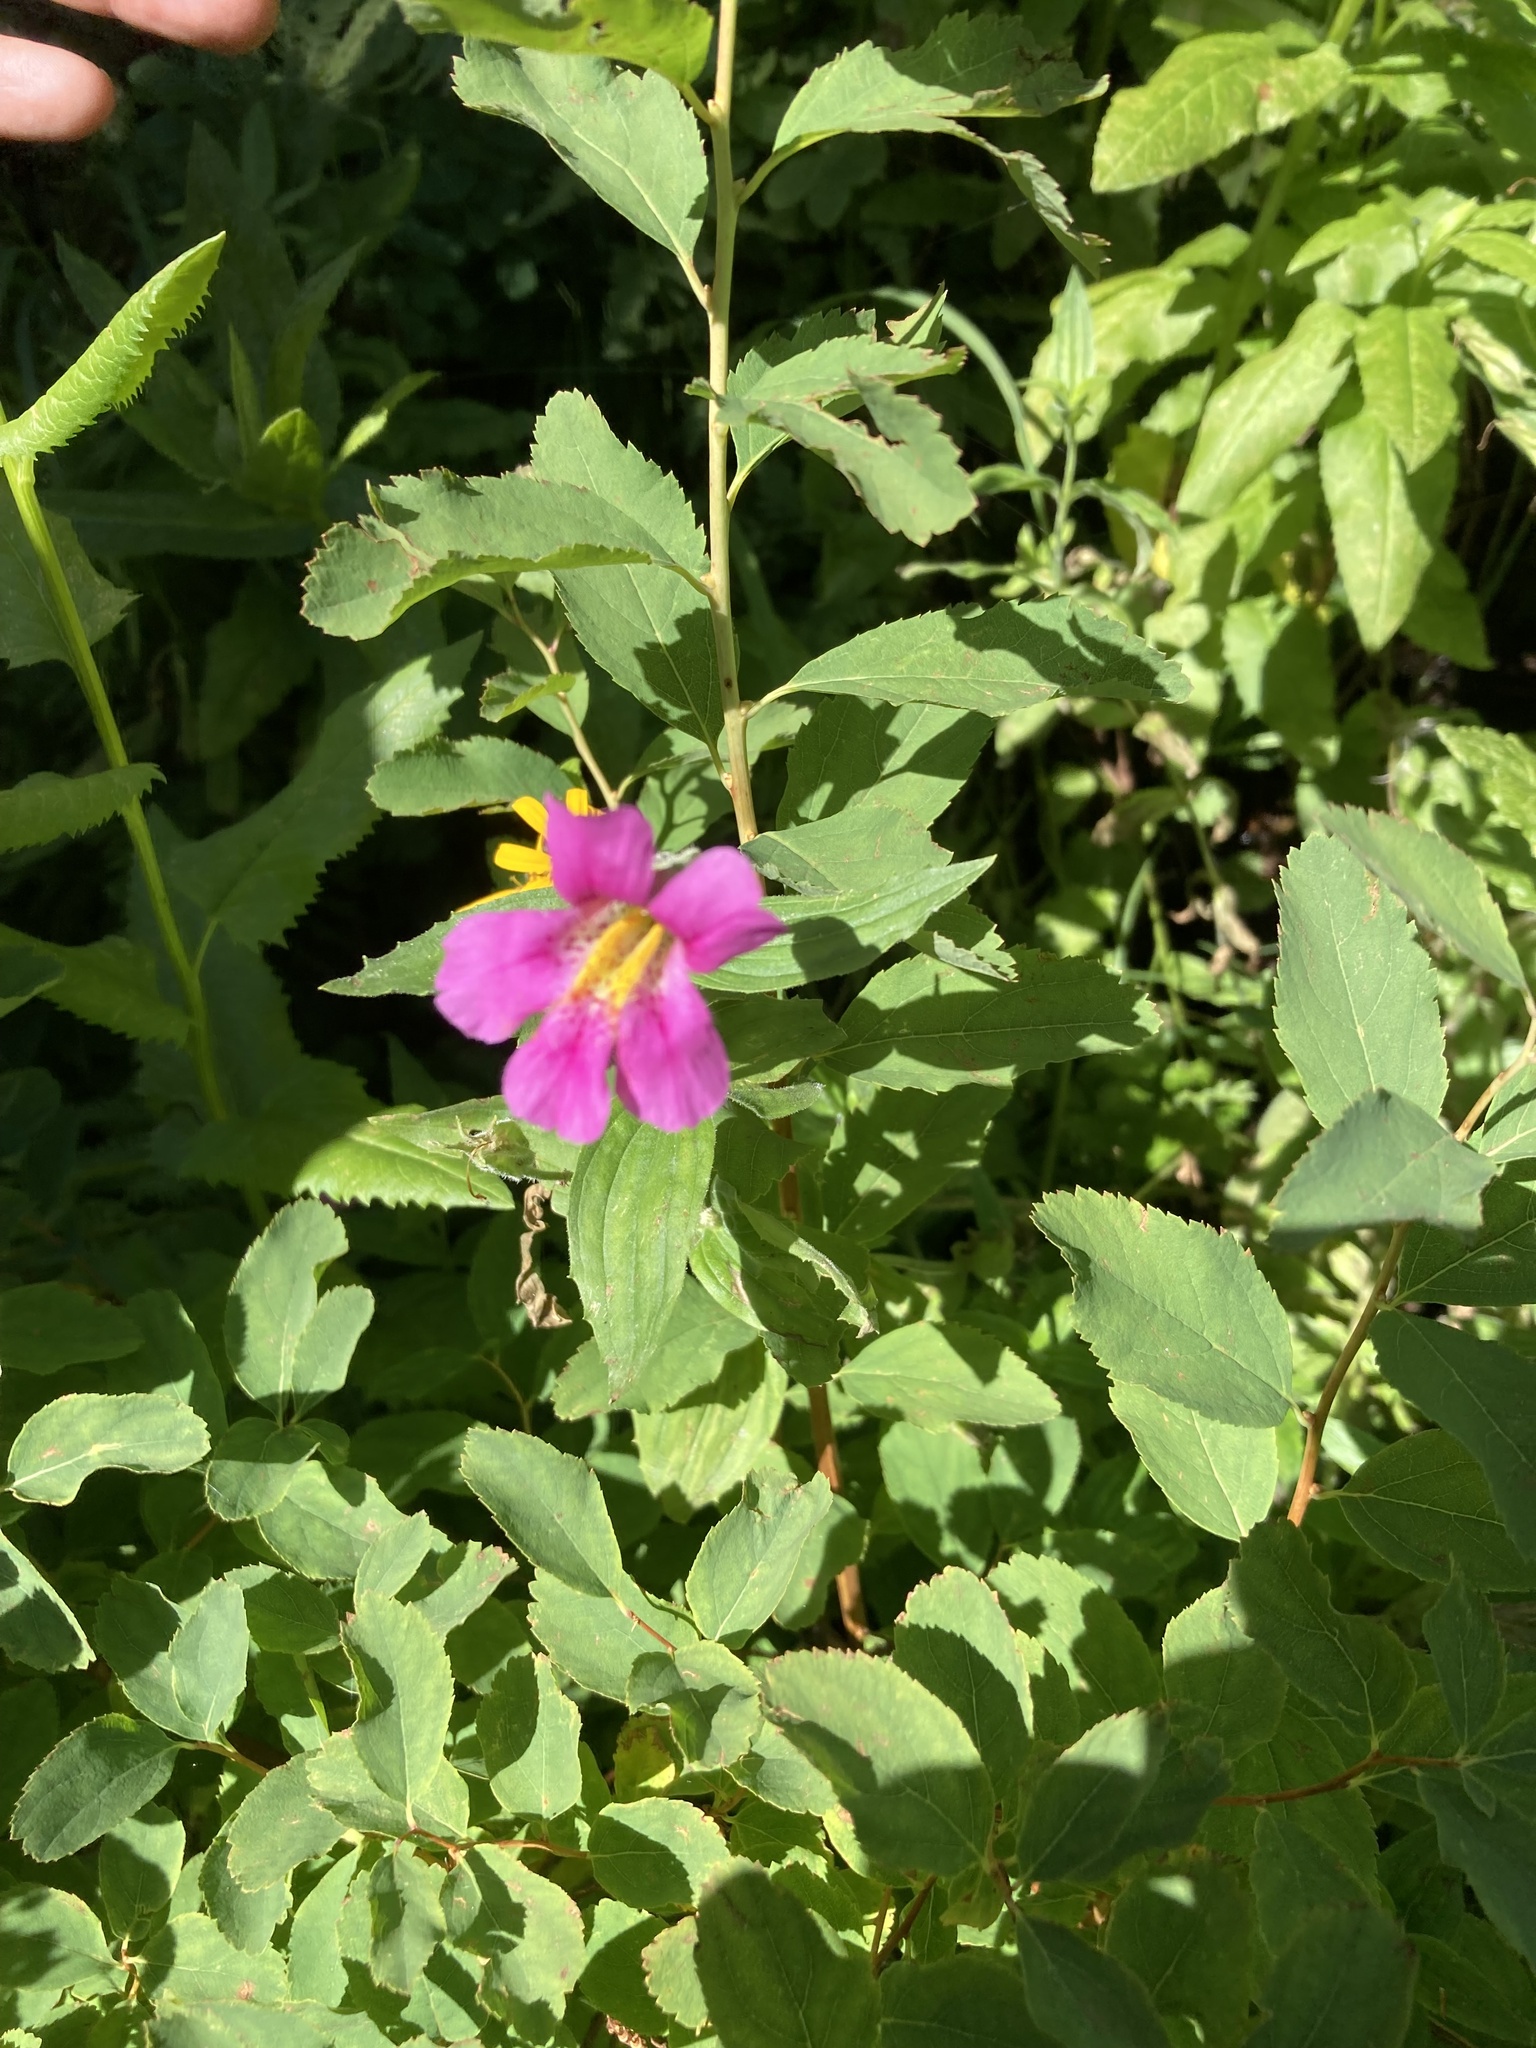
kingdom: Plantae
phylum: Tracheophyta
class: Magnoliopsida
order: Lamiales
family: Phrymaceae
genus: Erythranthe
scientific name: Erythranthe lewisii
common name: Lewis's monkey-flower
